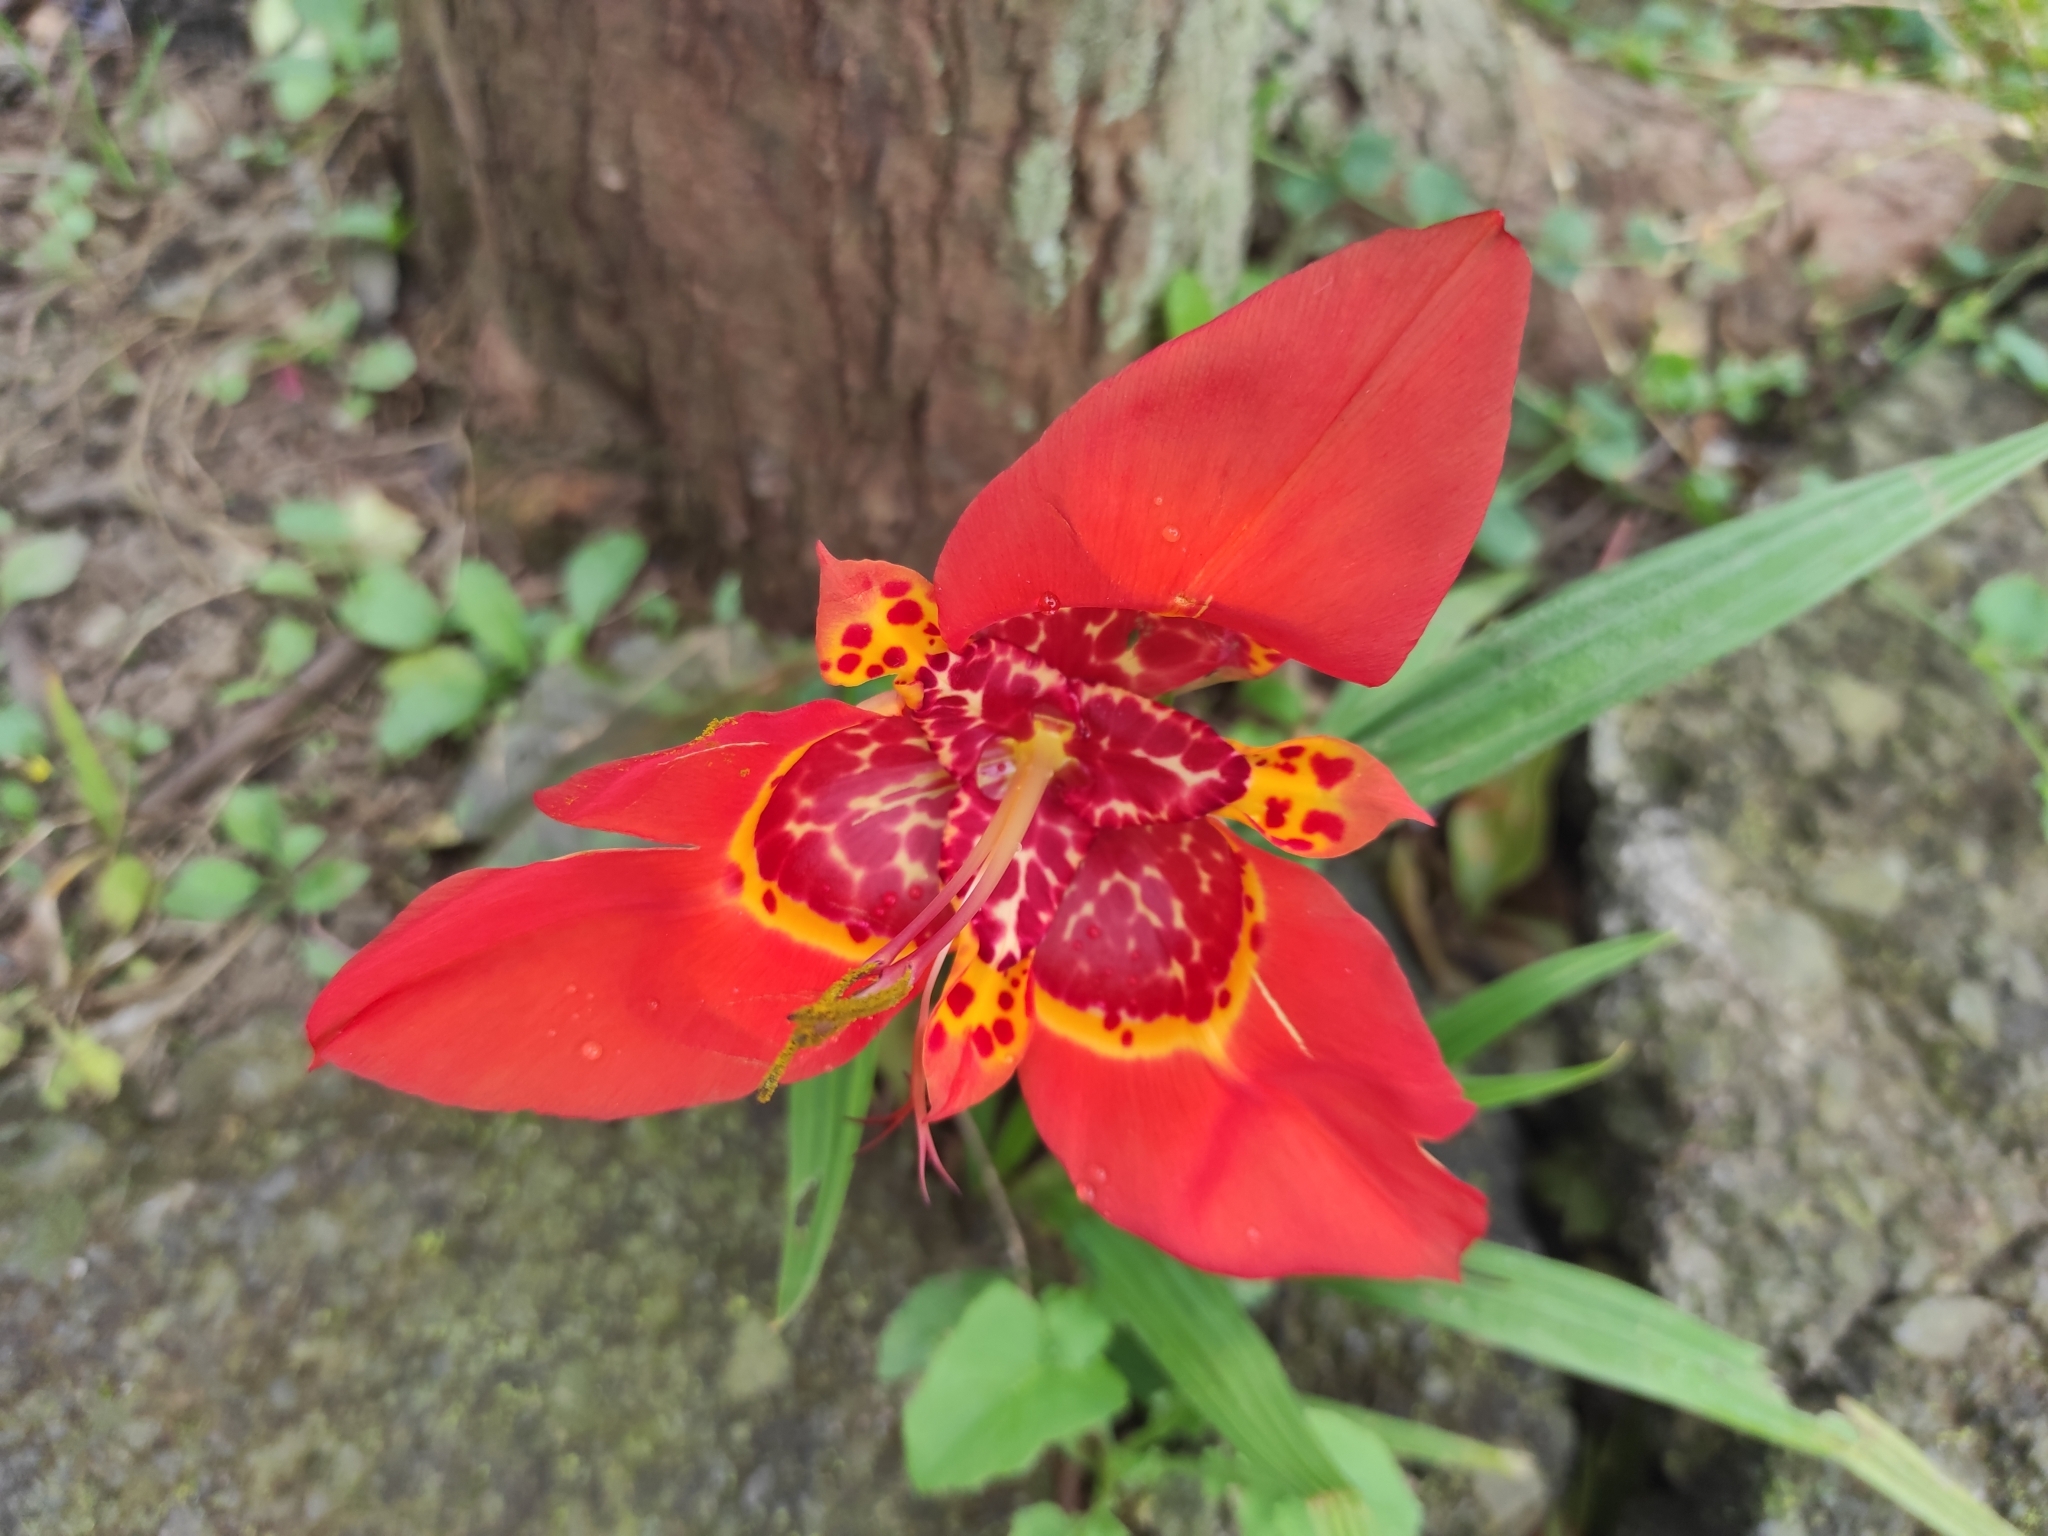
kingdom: Plantae
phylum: Tracheophyta
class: Liliopsida
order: Asparagales
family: Iridaceae
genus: Tigridia
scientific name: Tigridia pavonia
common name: Peacock-flower
